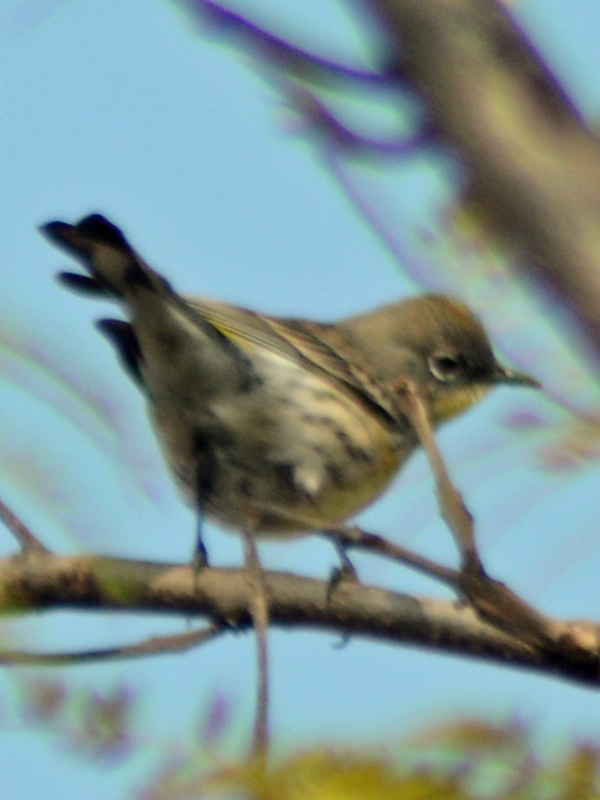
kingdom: Animalia
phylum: Chordata
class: Aves
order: Passeriformes
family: Parulidae
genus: Setophaga
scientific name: Setophaga coronata
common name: Myrtle warbler
